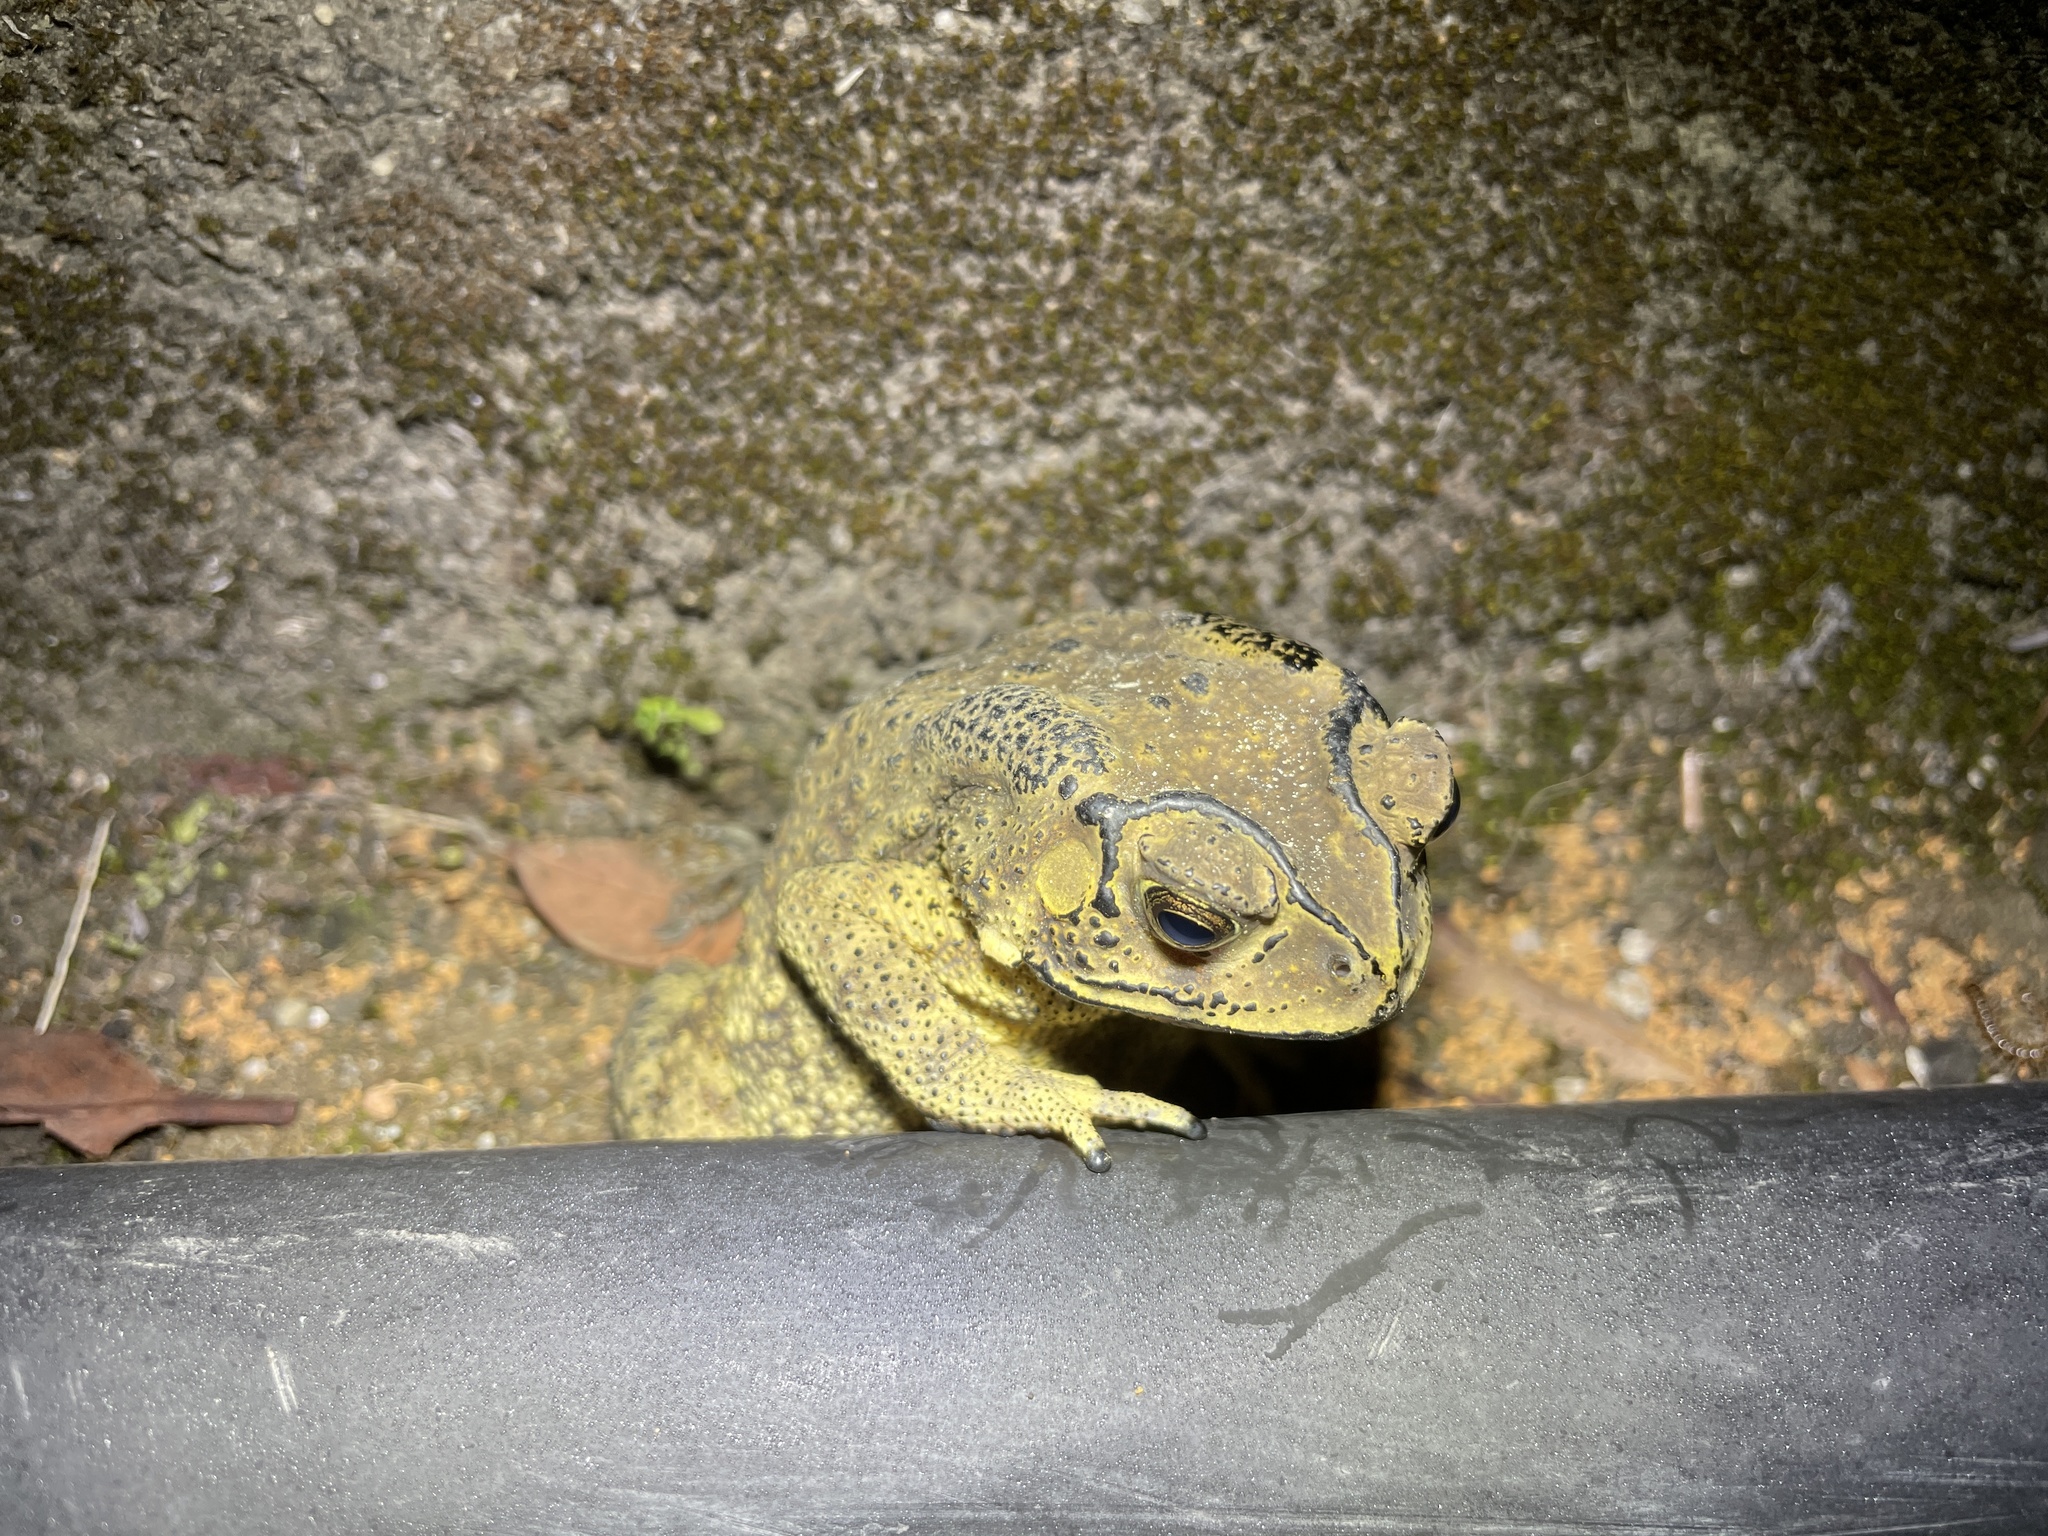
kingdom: Animalia
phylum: Chordata
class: Amphibia
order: Anura
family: Bufonidae
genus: Duttaphrynus
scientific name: Duttaphrynus melanostictus
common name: Common sunda toad
